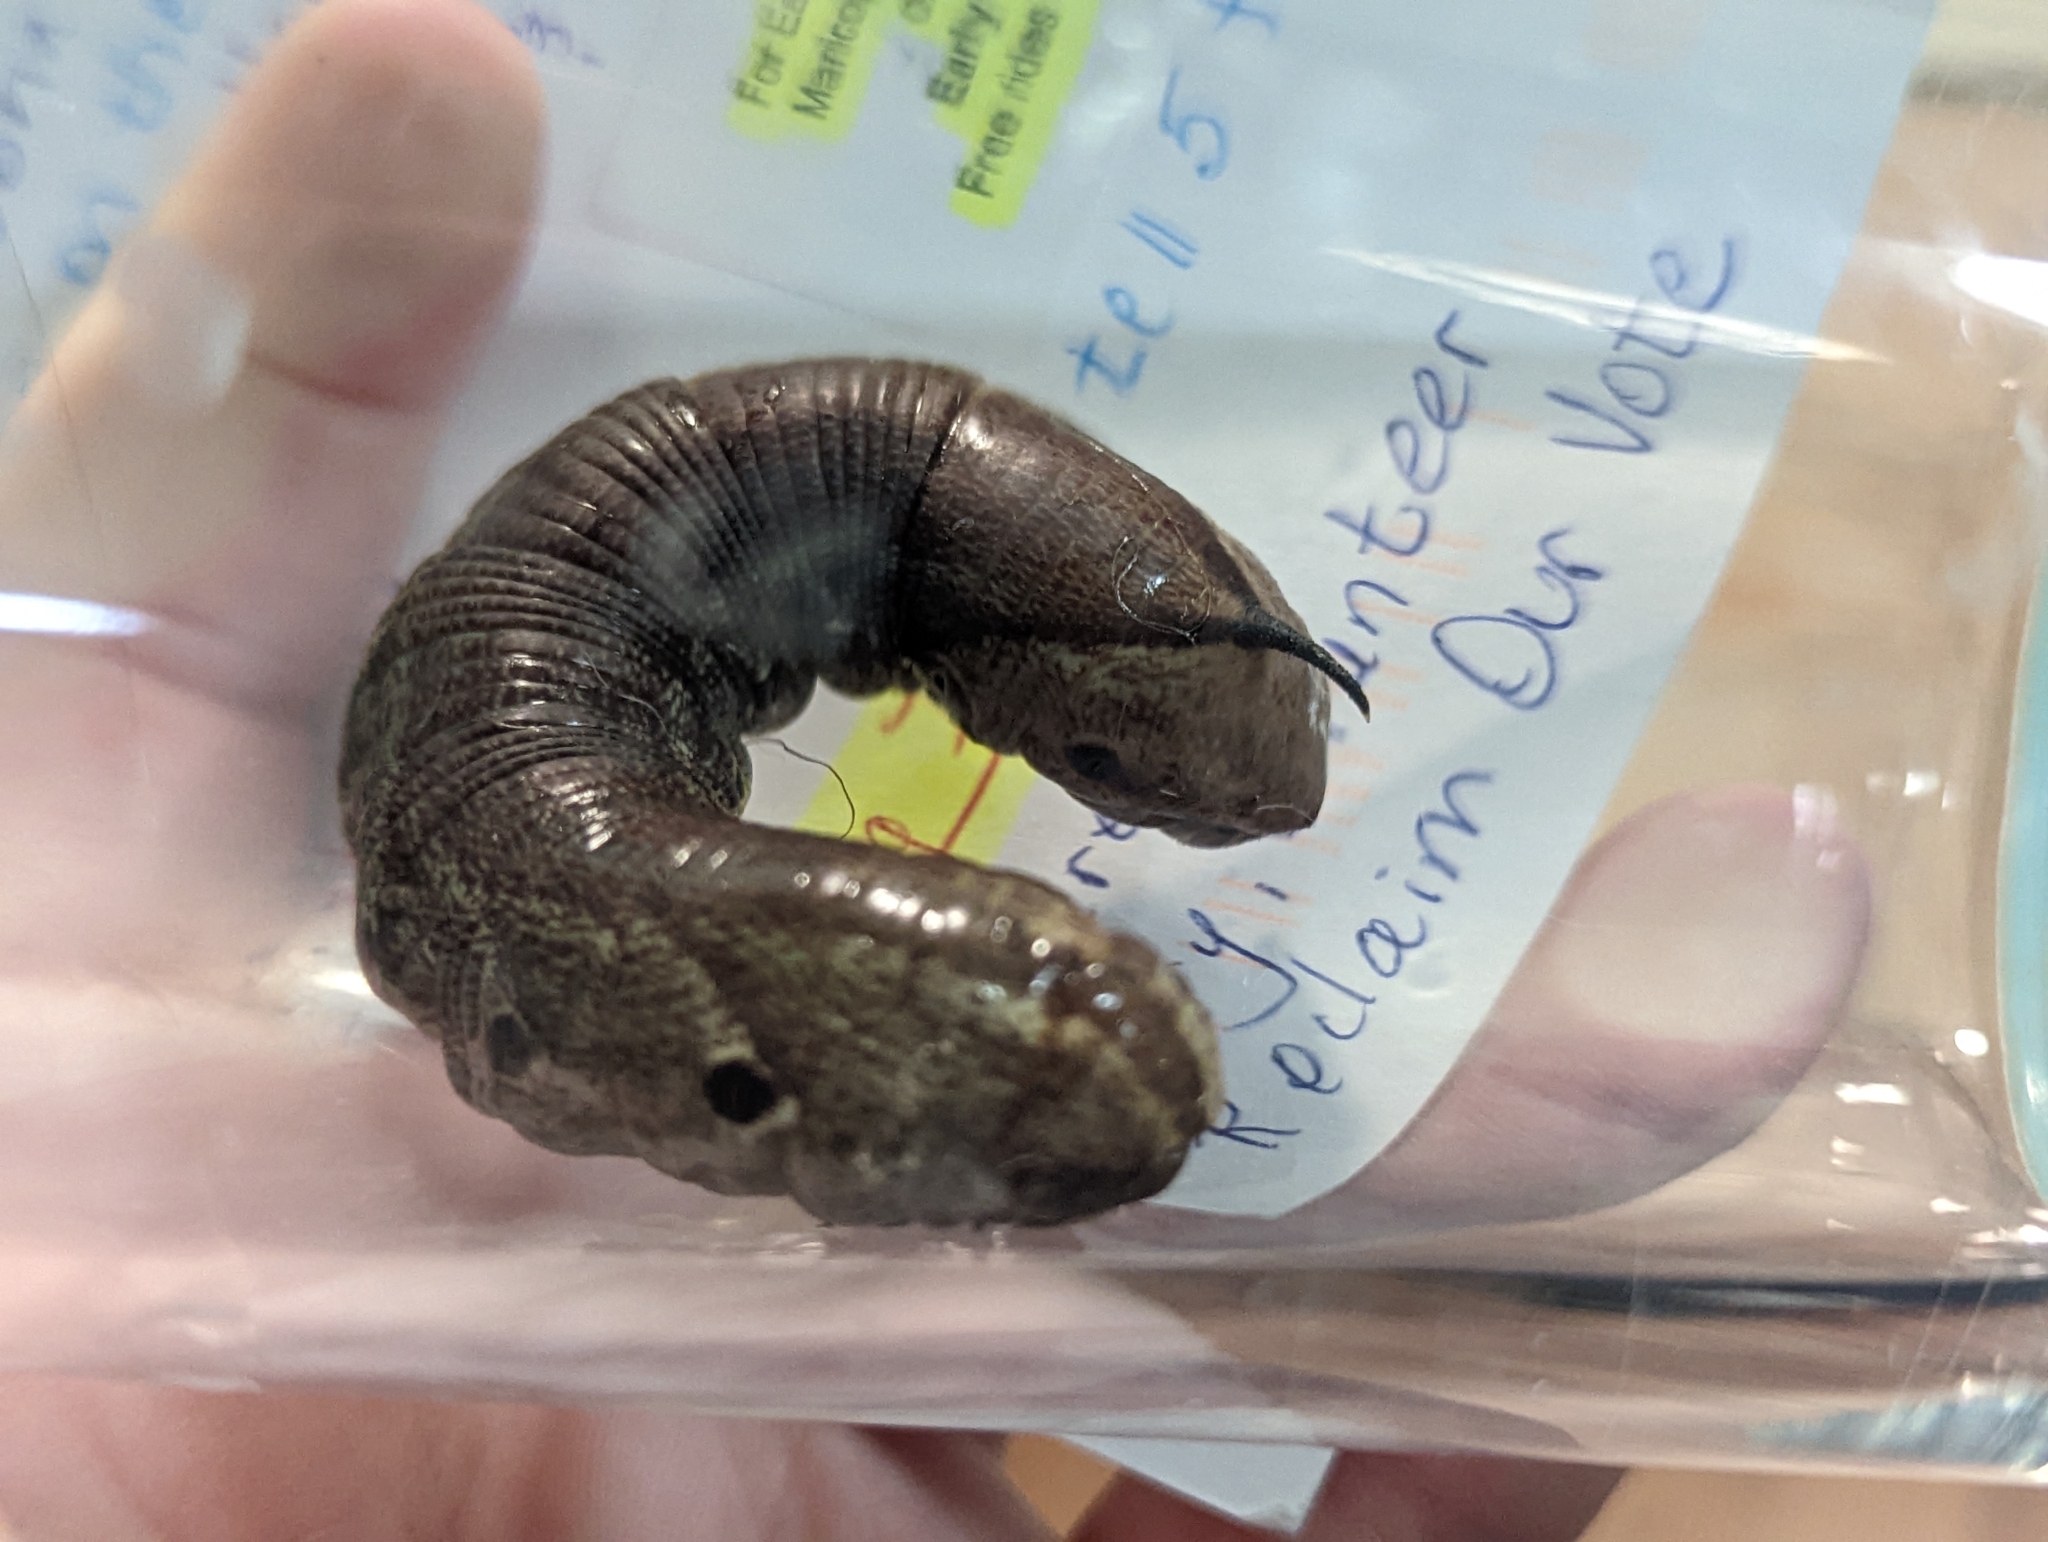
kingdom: Animalia
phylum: Arthropoda
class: Insecta
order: Lepidoptera
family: Sphingidae
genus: Agrius
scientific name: Agrius cingulata
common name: Pink-spotted hawkmoth
